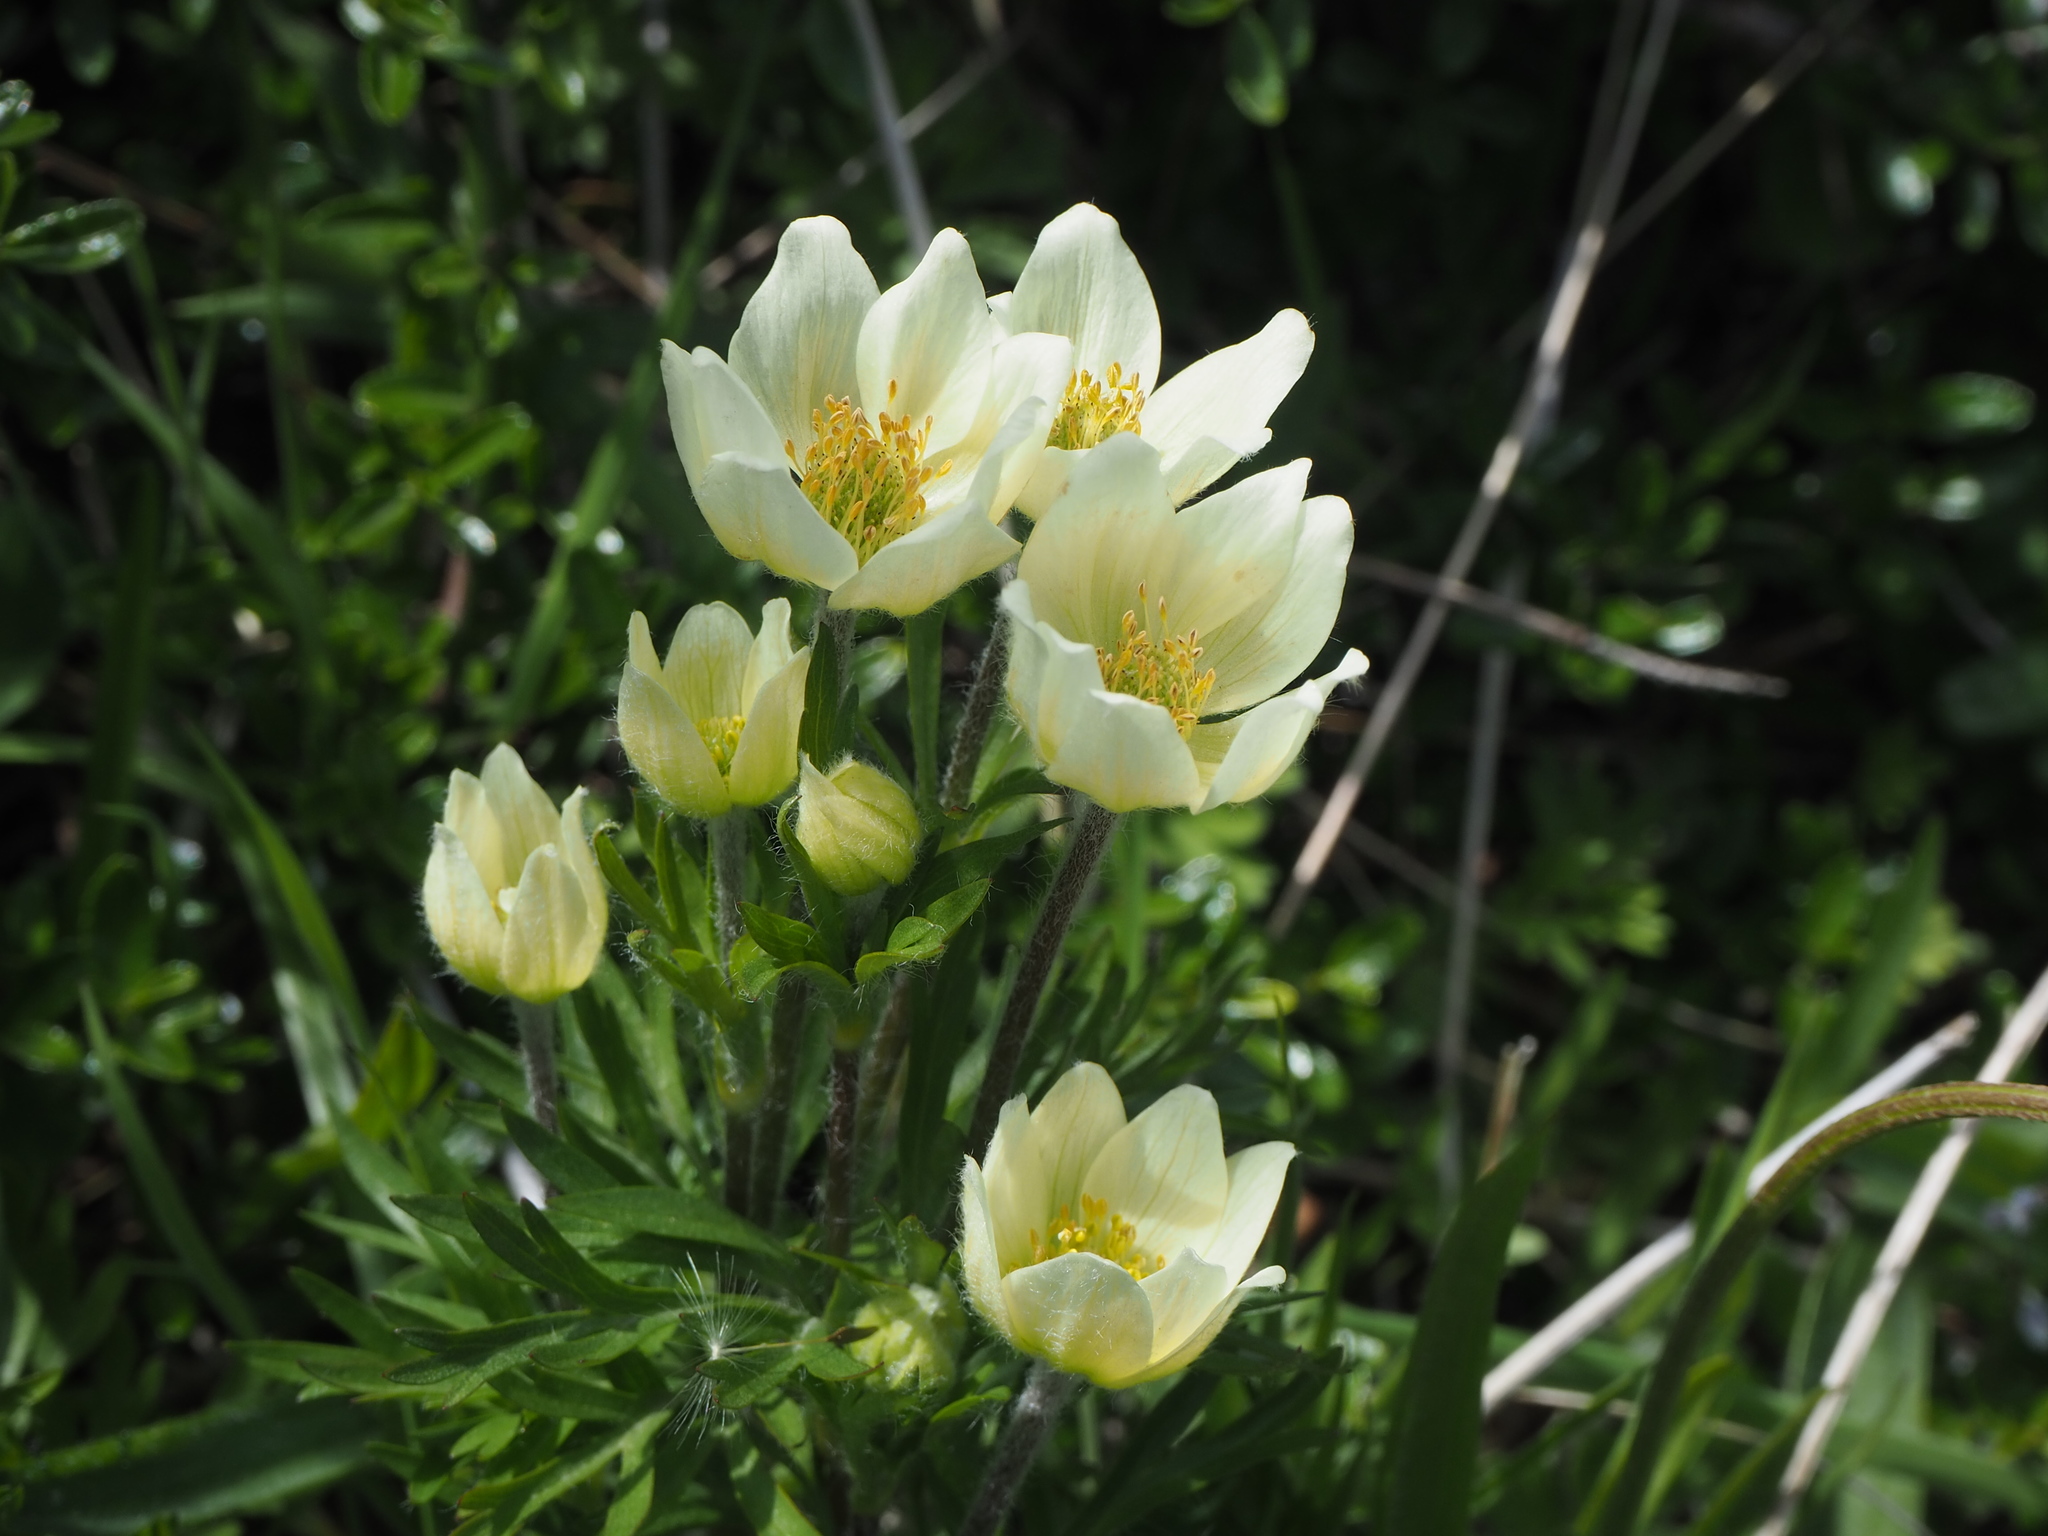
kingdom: Plantae
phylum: Tracheophyta
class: Magnoliopsida
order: Ranunculales
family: Ranunculaceae
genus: Anemone
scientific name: Anemone multifida
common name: Bird's-foot anemone
